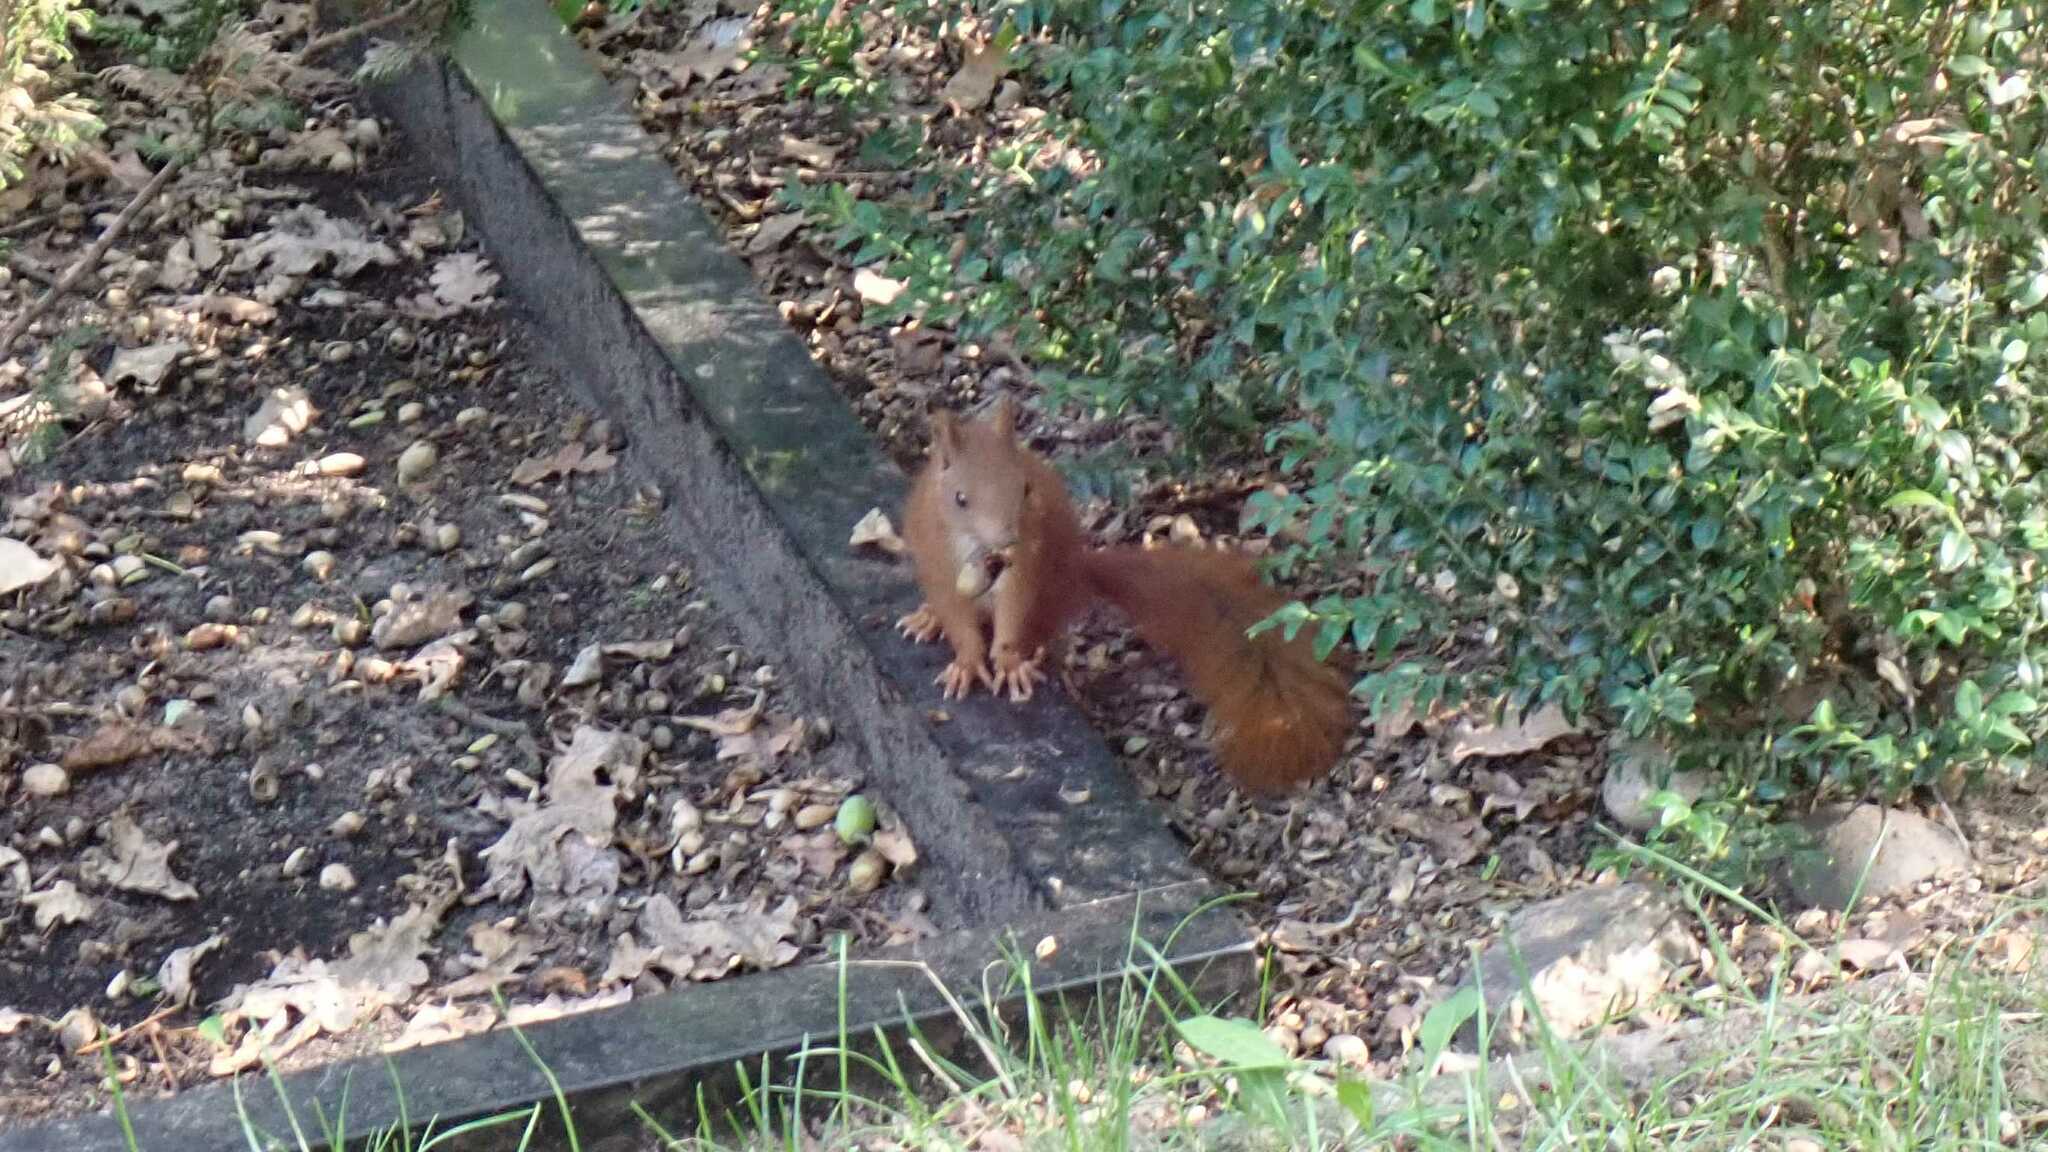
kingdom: Animalia
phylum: Chordata
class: Mammalia
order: Rodentia
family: Sciuridae
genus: Sciurus
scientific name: Sciurus vulgaris
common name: Eurasian red squirrel
